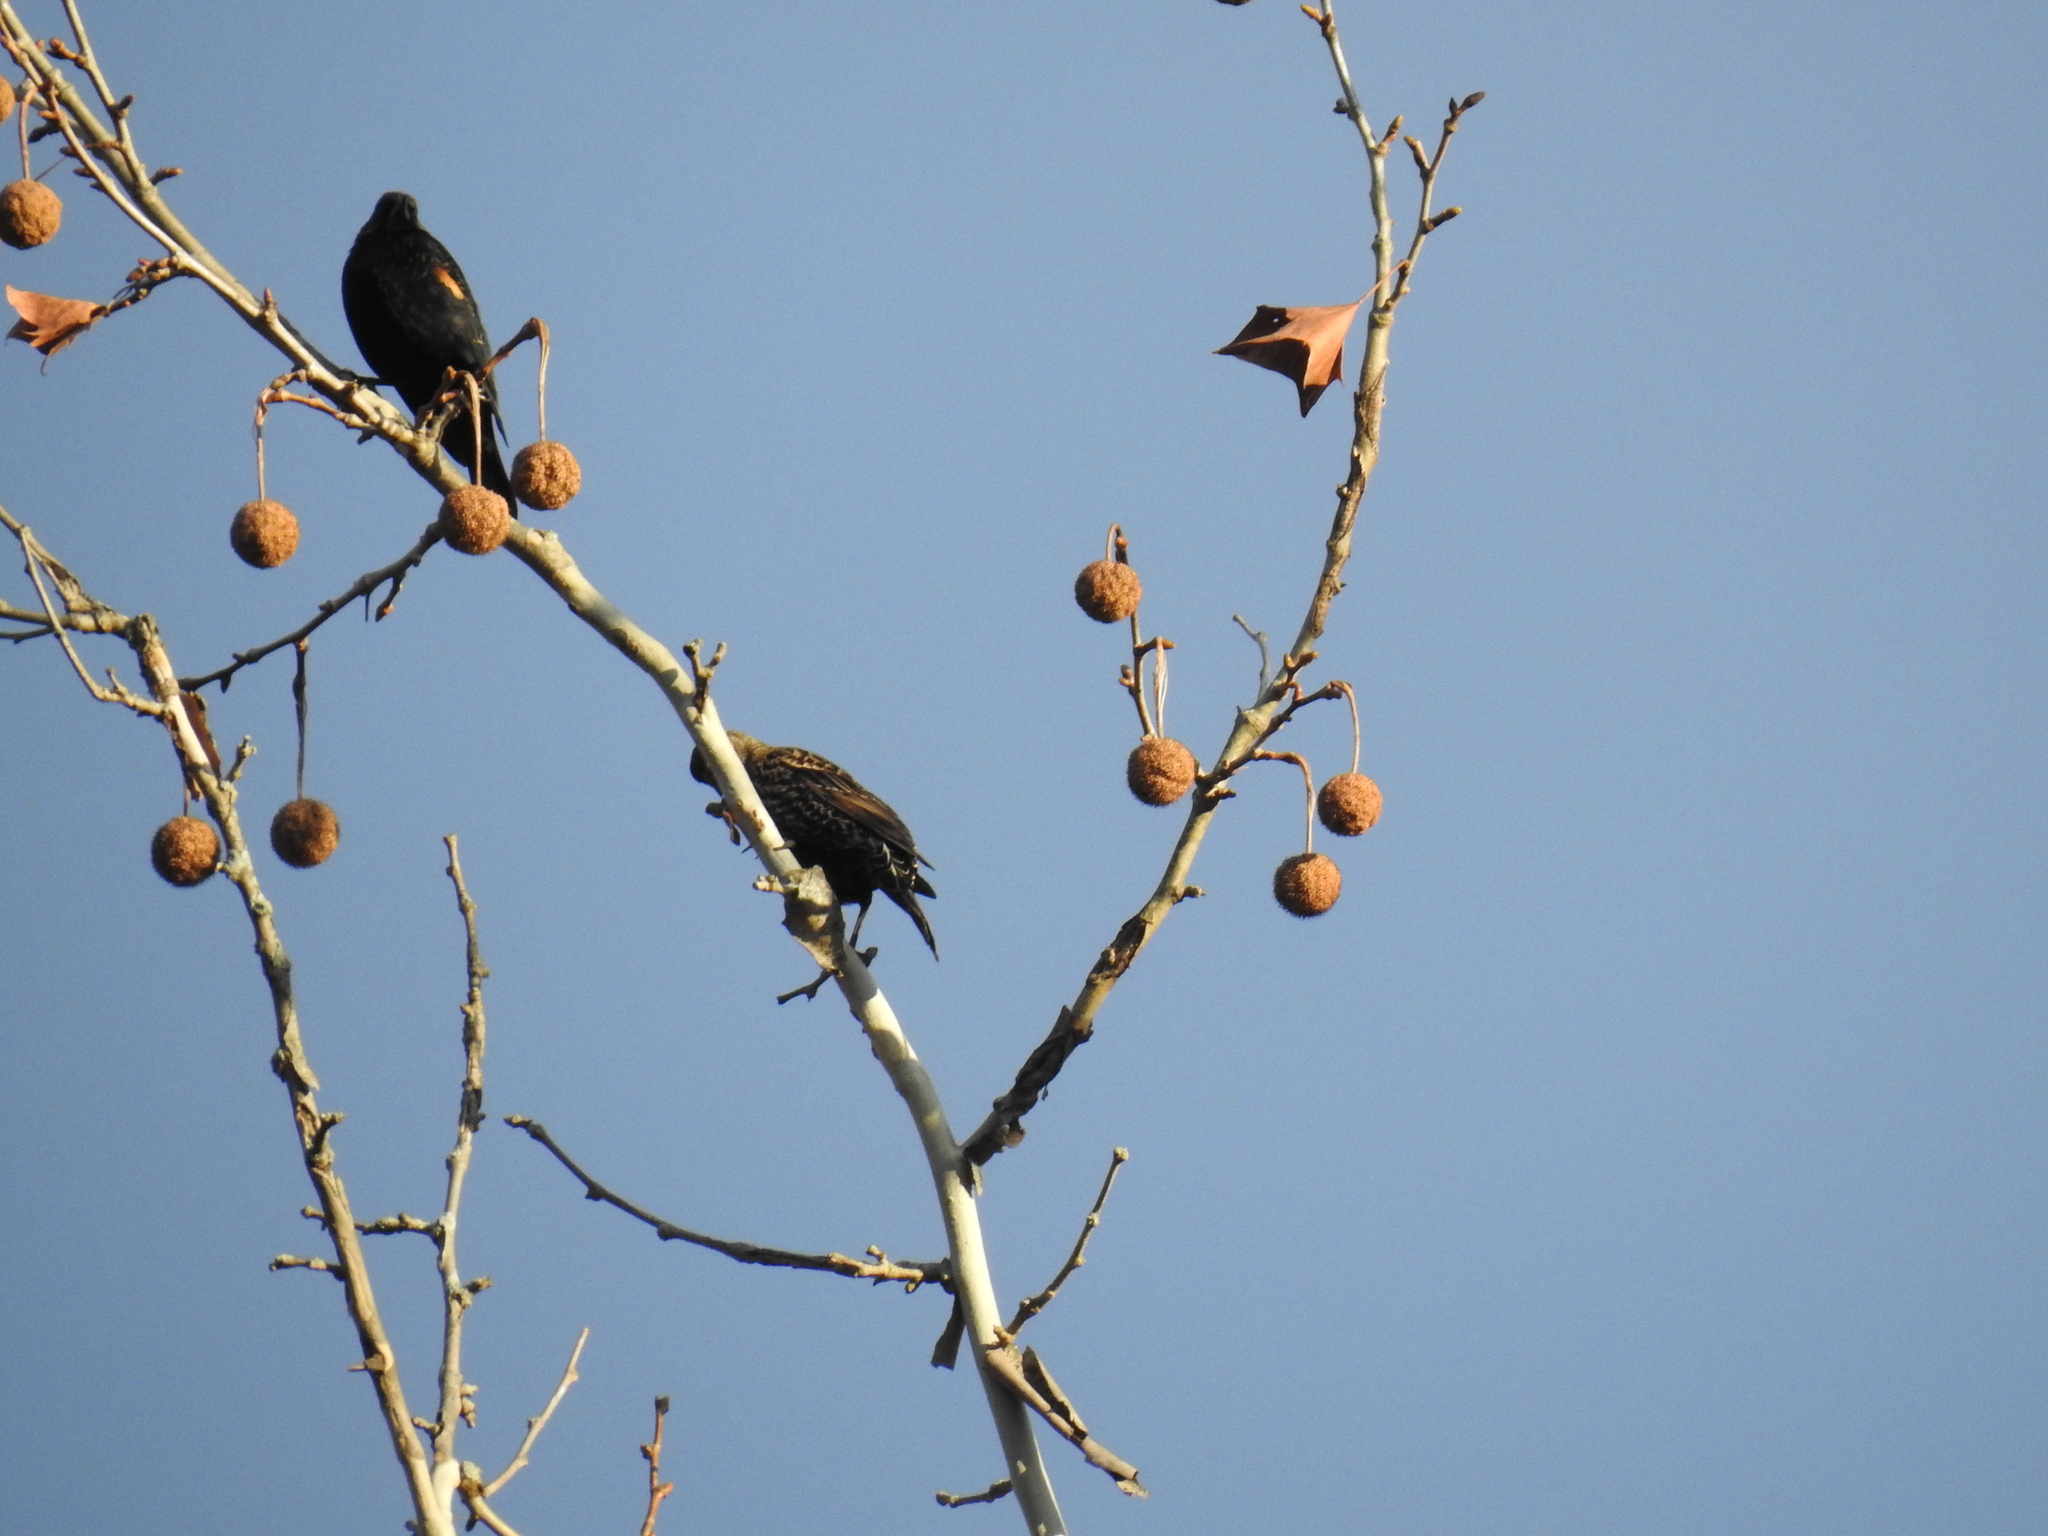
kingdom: Animalia
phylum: Chordata
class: Aves
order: Passeriformes
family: Icteridae
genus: Agelaius
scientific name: Agelaius phoeniceus
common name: Red-winged blackbird
